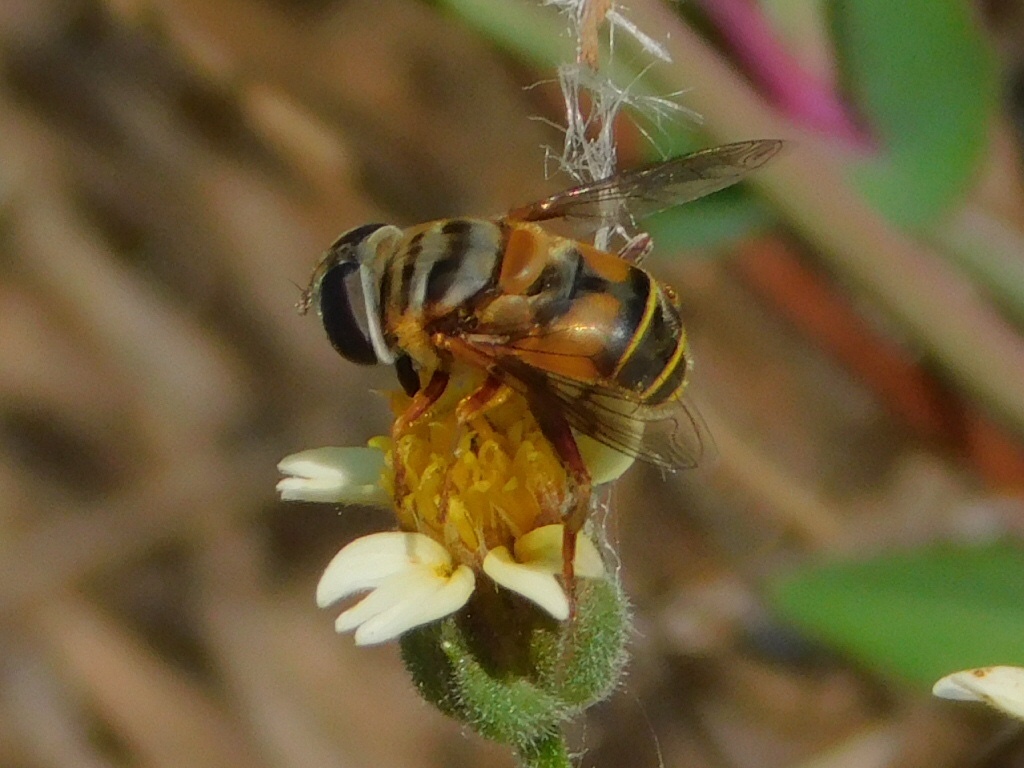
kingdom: Animalia
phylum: Arthropoda
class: Insecta
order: Diptera
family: Syrphidae
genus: Palpada
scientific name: Palpada vinetorum
